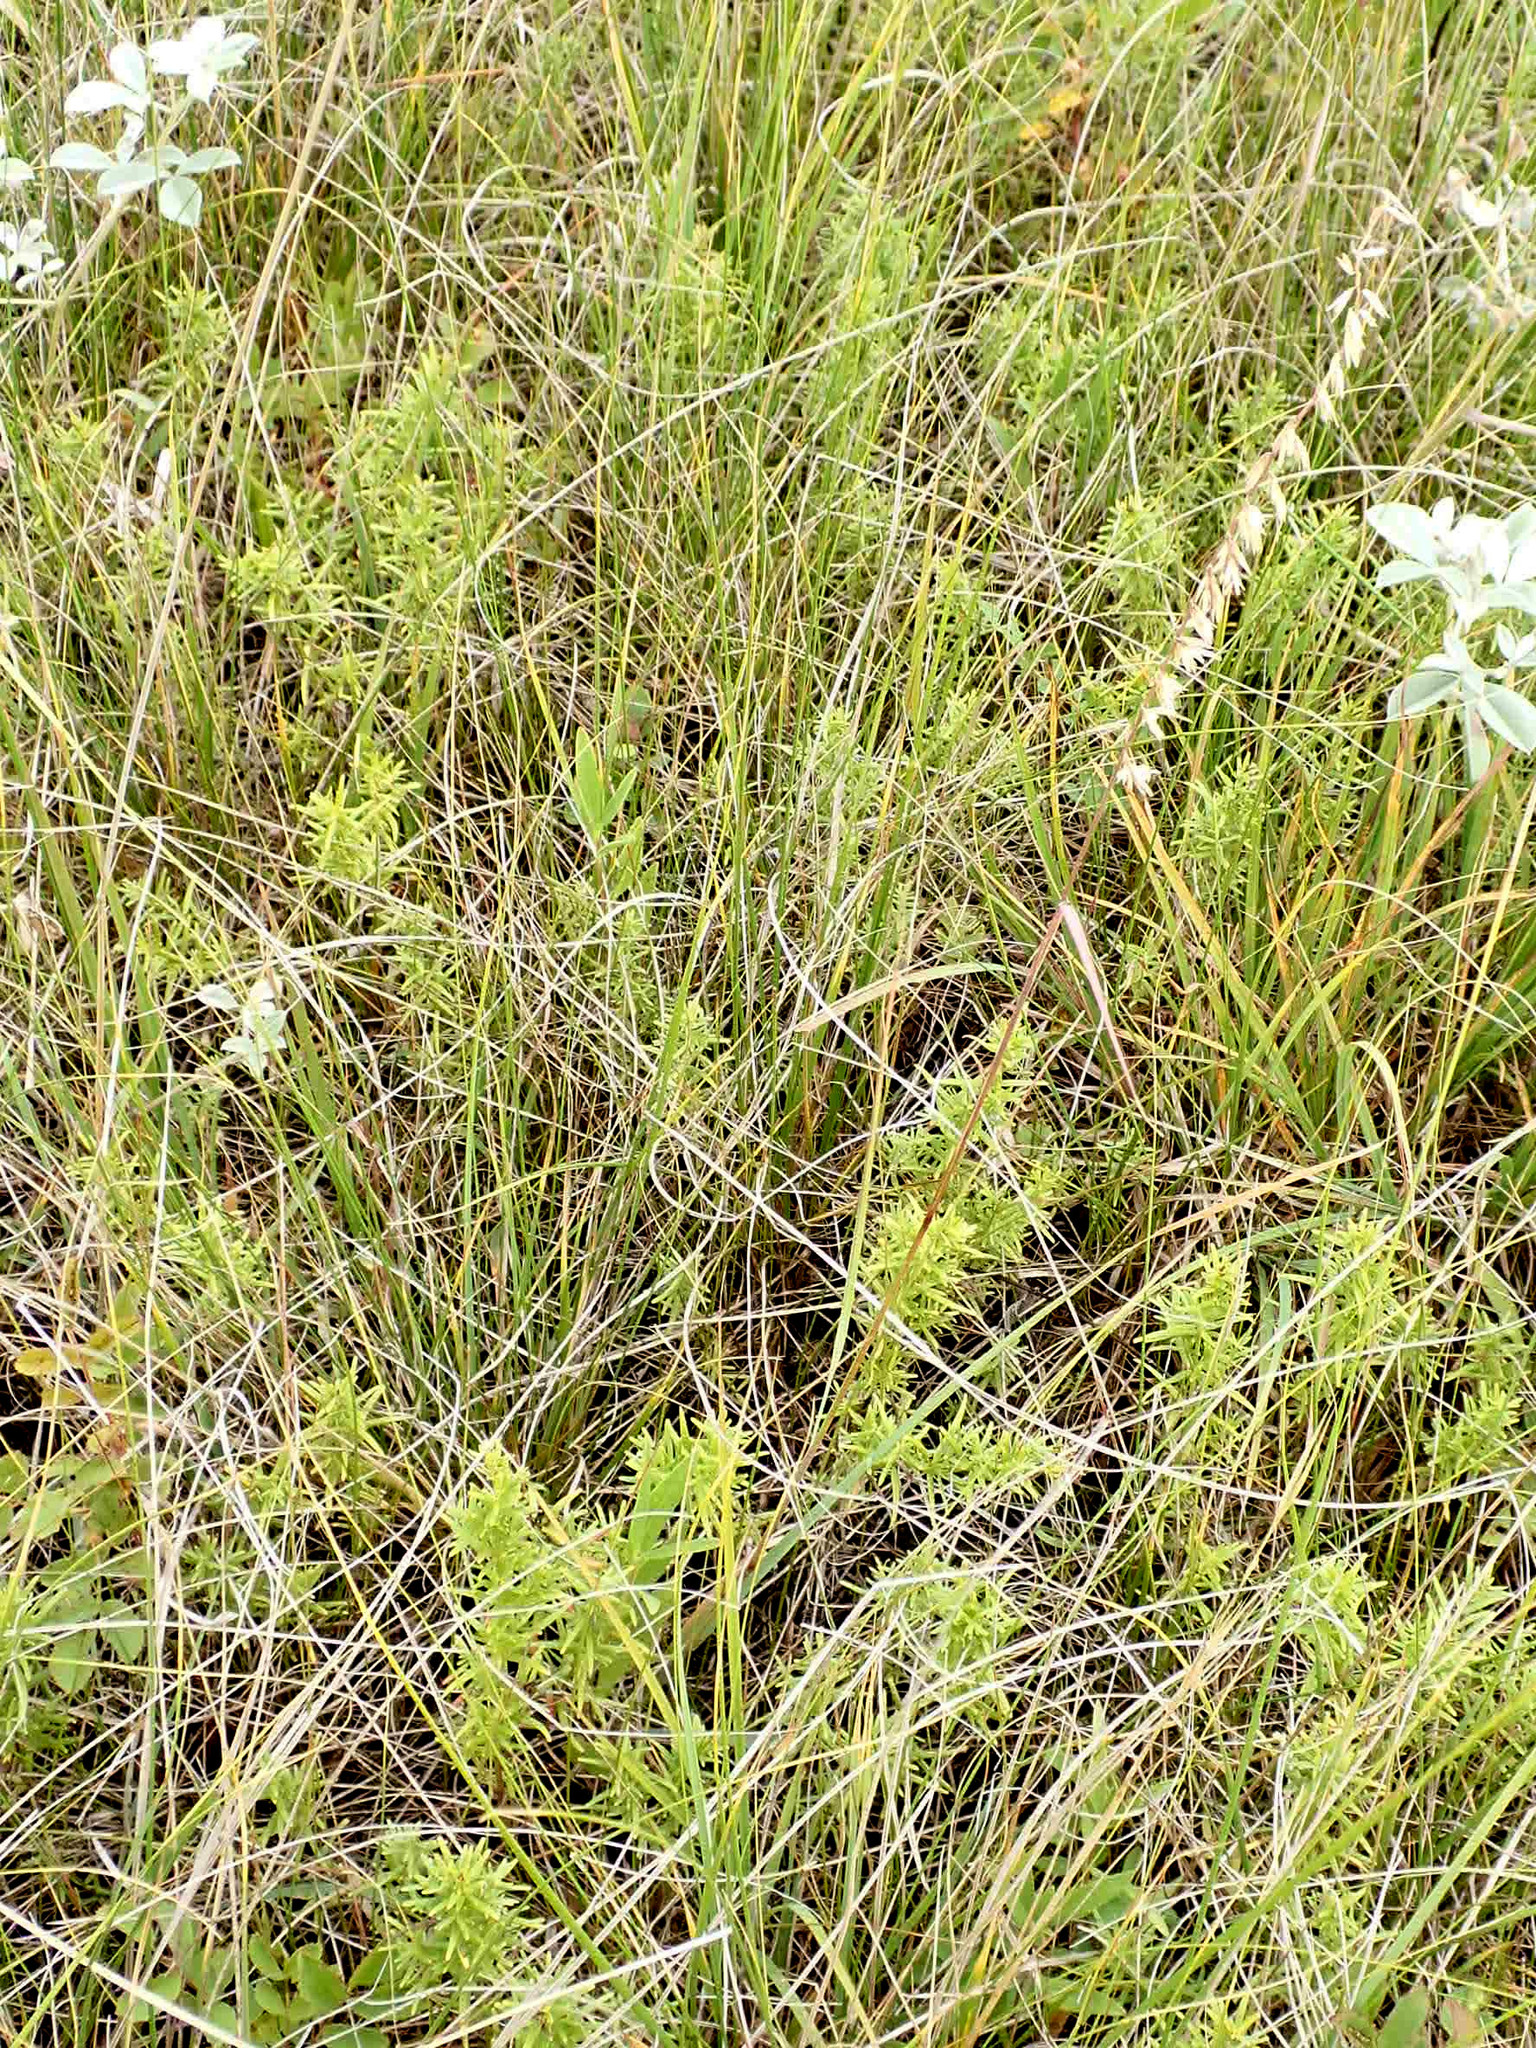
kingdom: Plantae
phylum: Tracheophyta
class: Liliopsida
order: Poales
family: Poaceae
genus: Bouteloua
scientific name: Bouteloua curtipendula
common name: Side-oats grama
